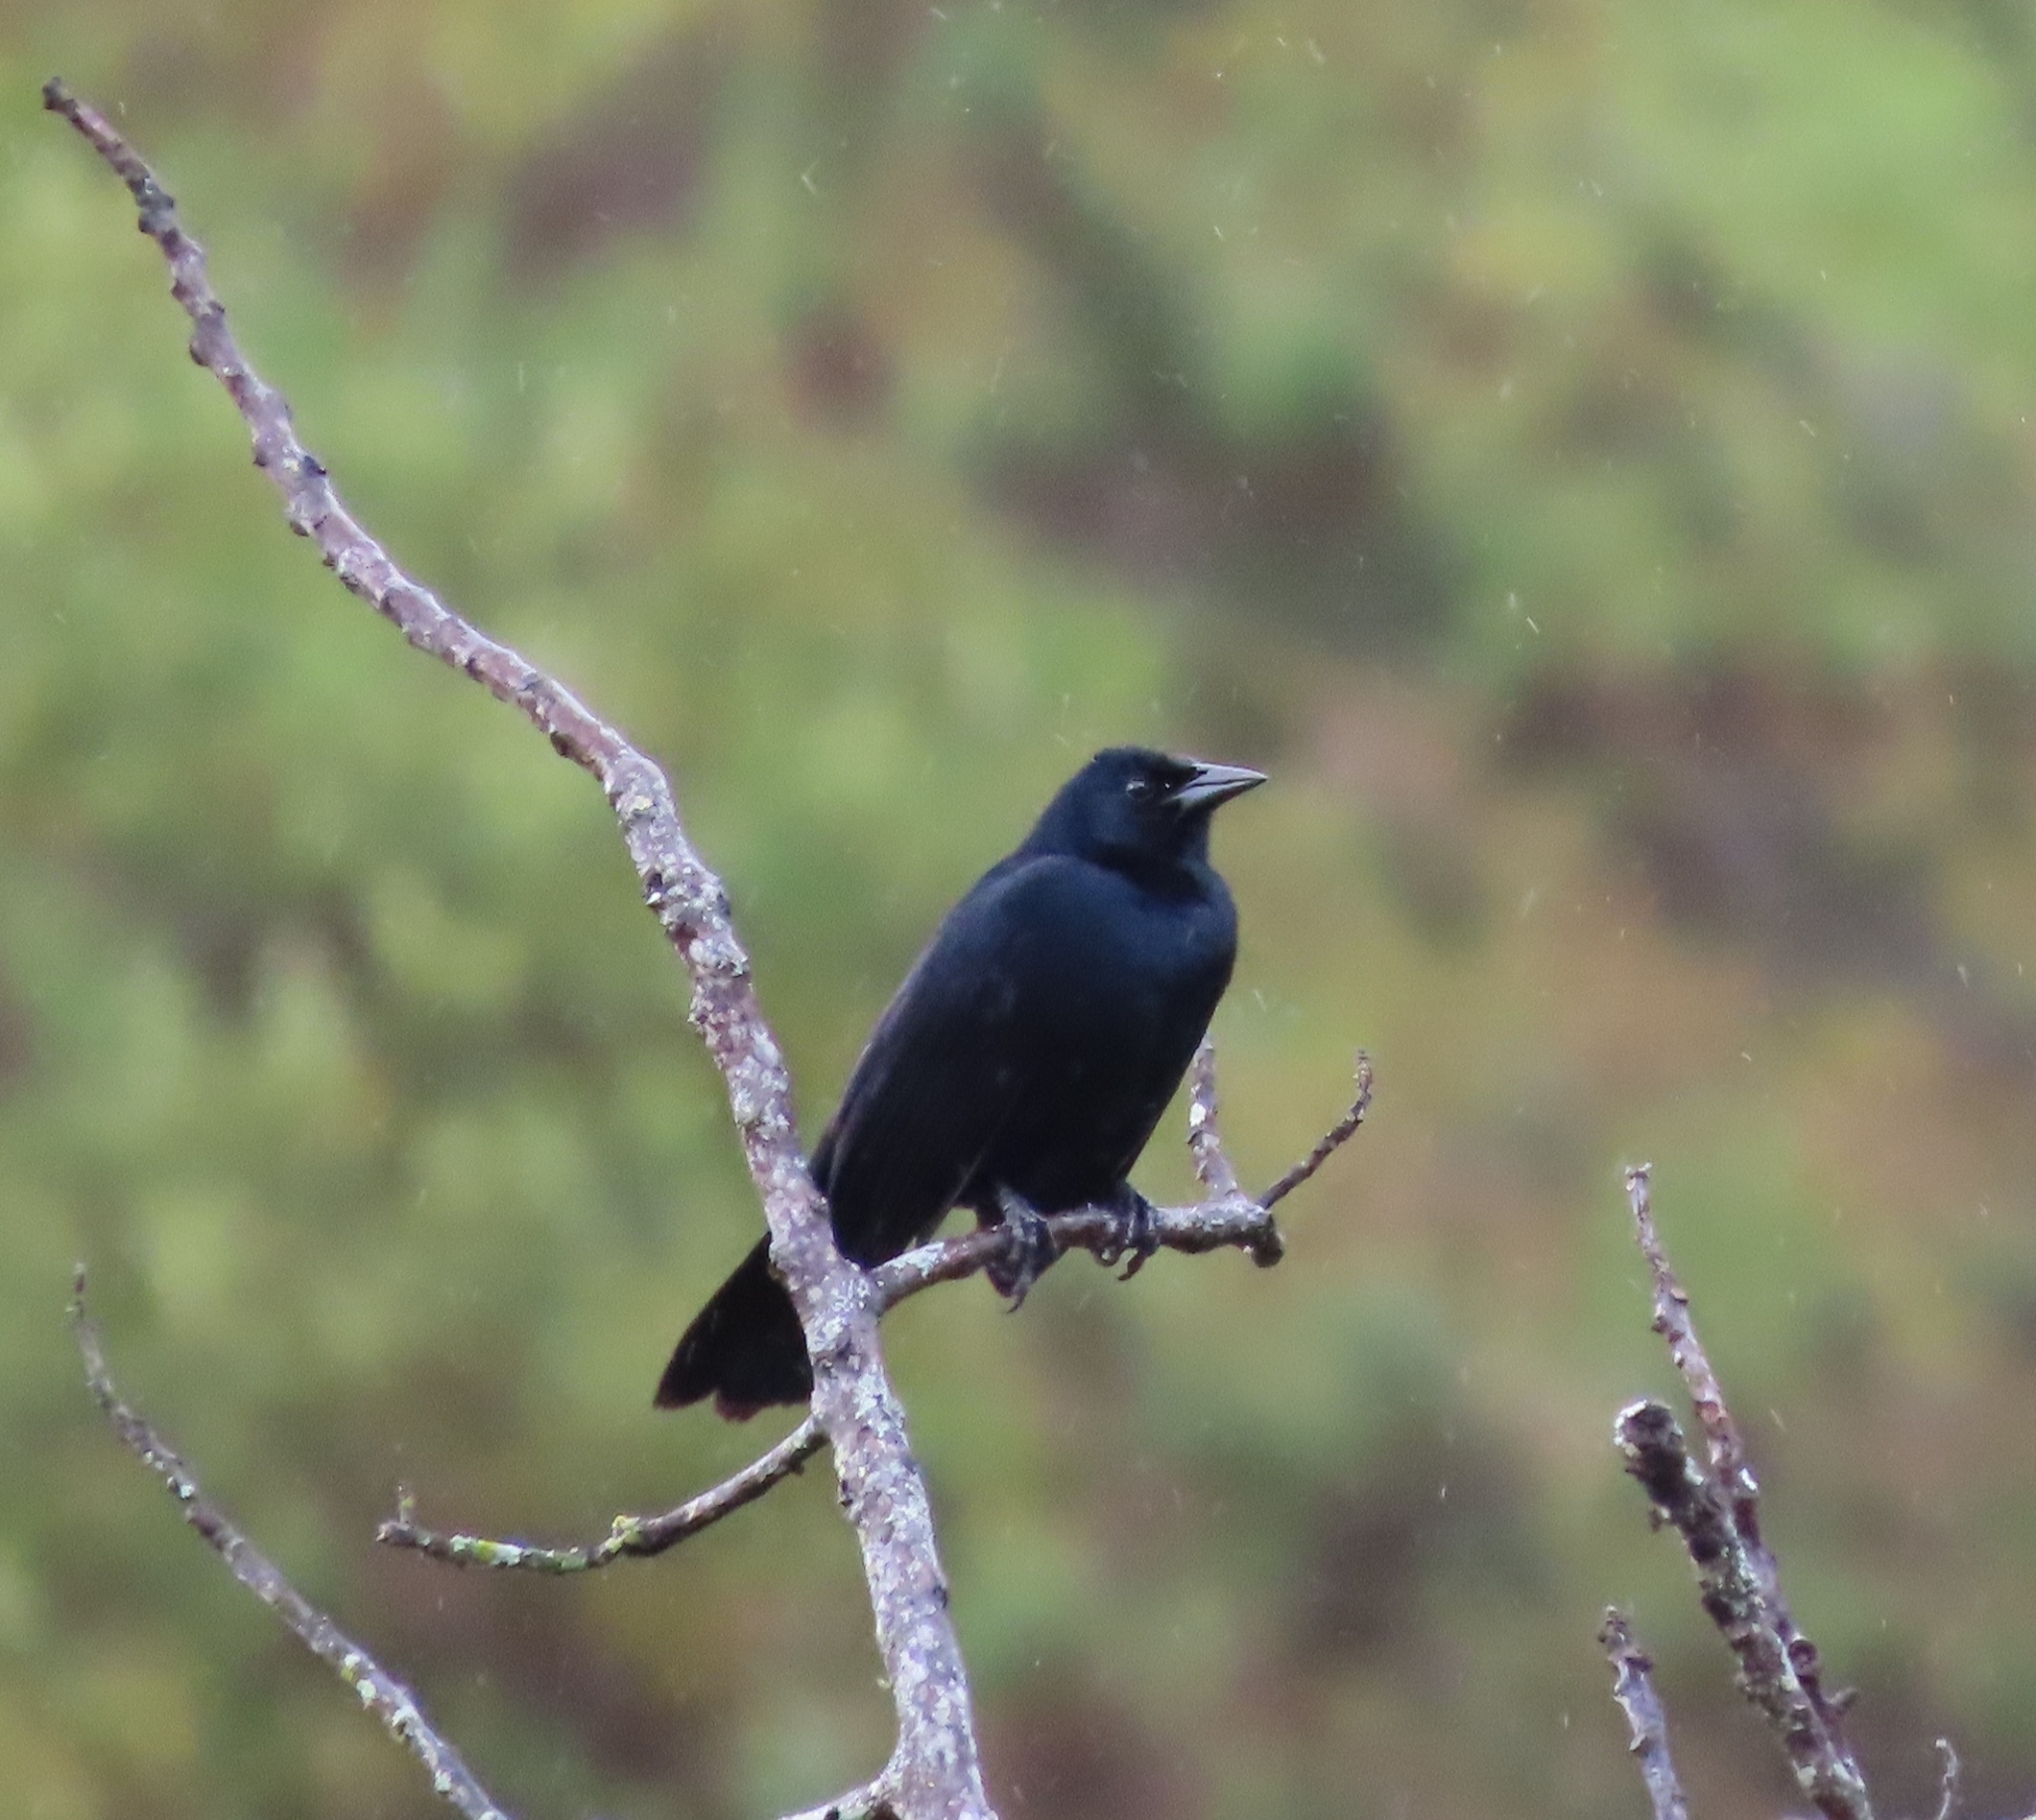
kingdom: Animalia
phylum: Chordata
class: Aves
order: Passeriformes
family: Icteridae
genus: Dives
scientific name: Dives dives
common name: Melodious blackbird
